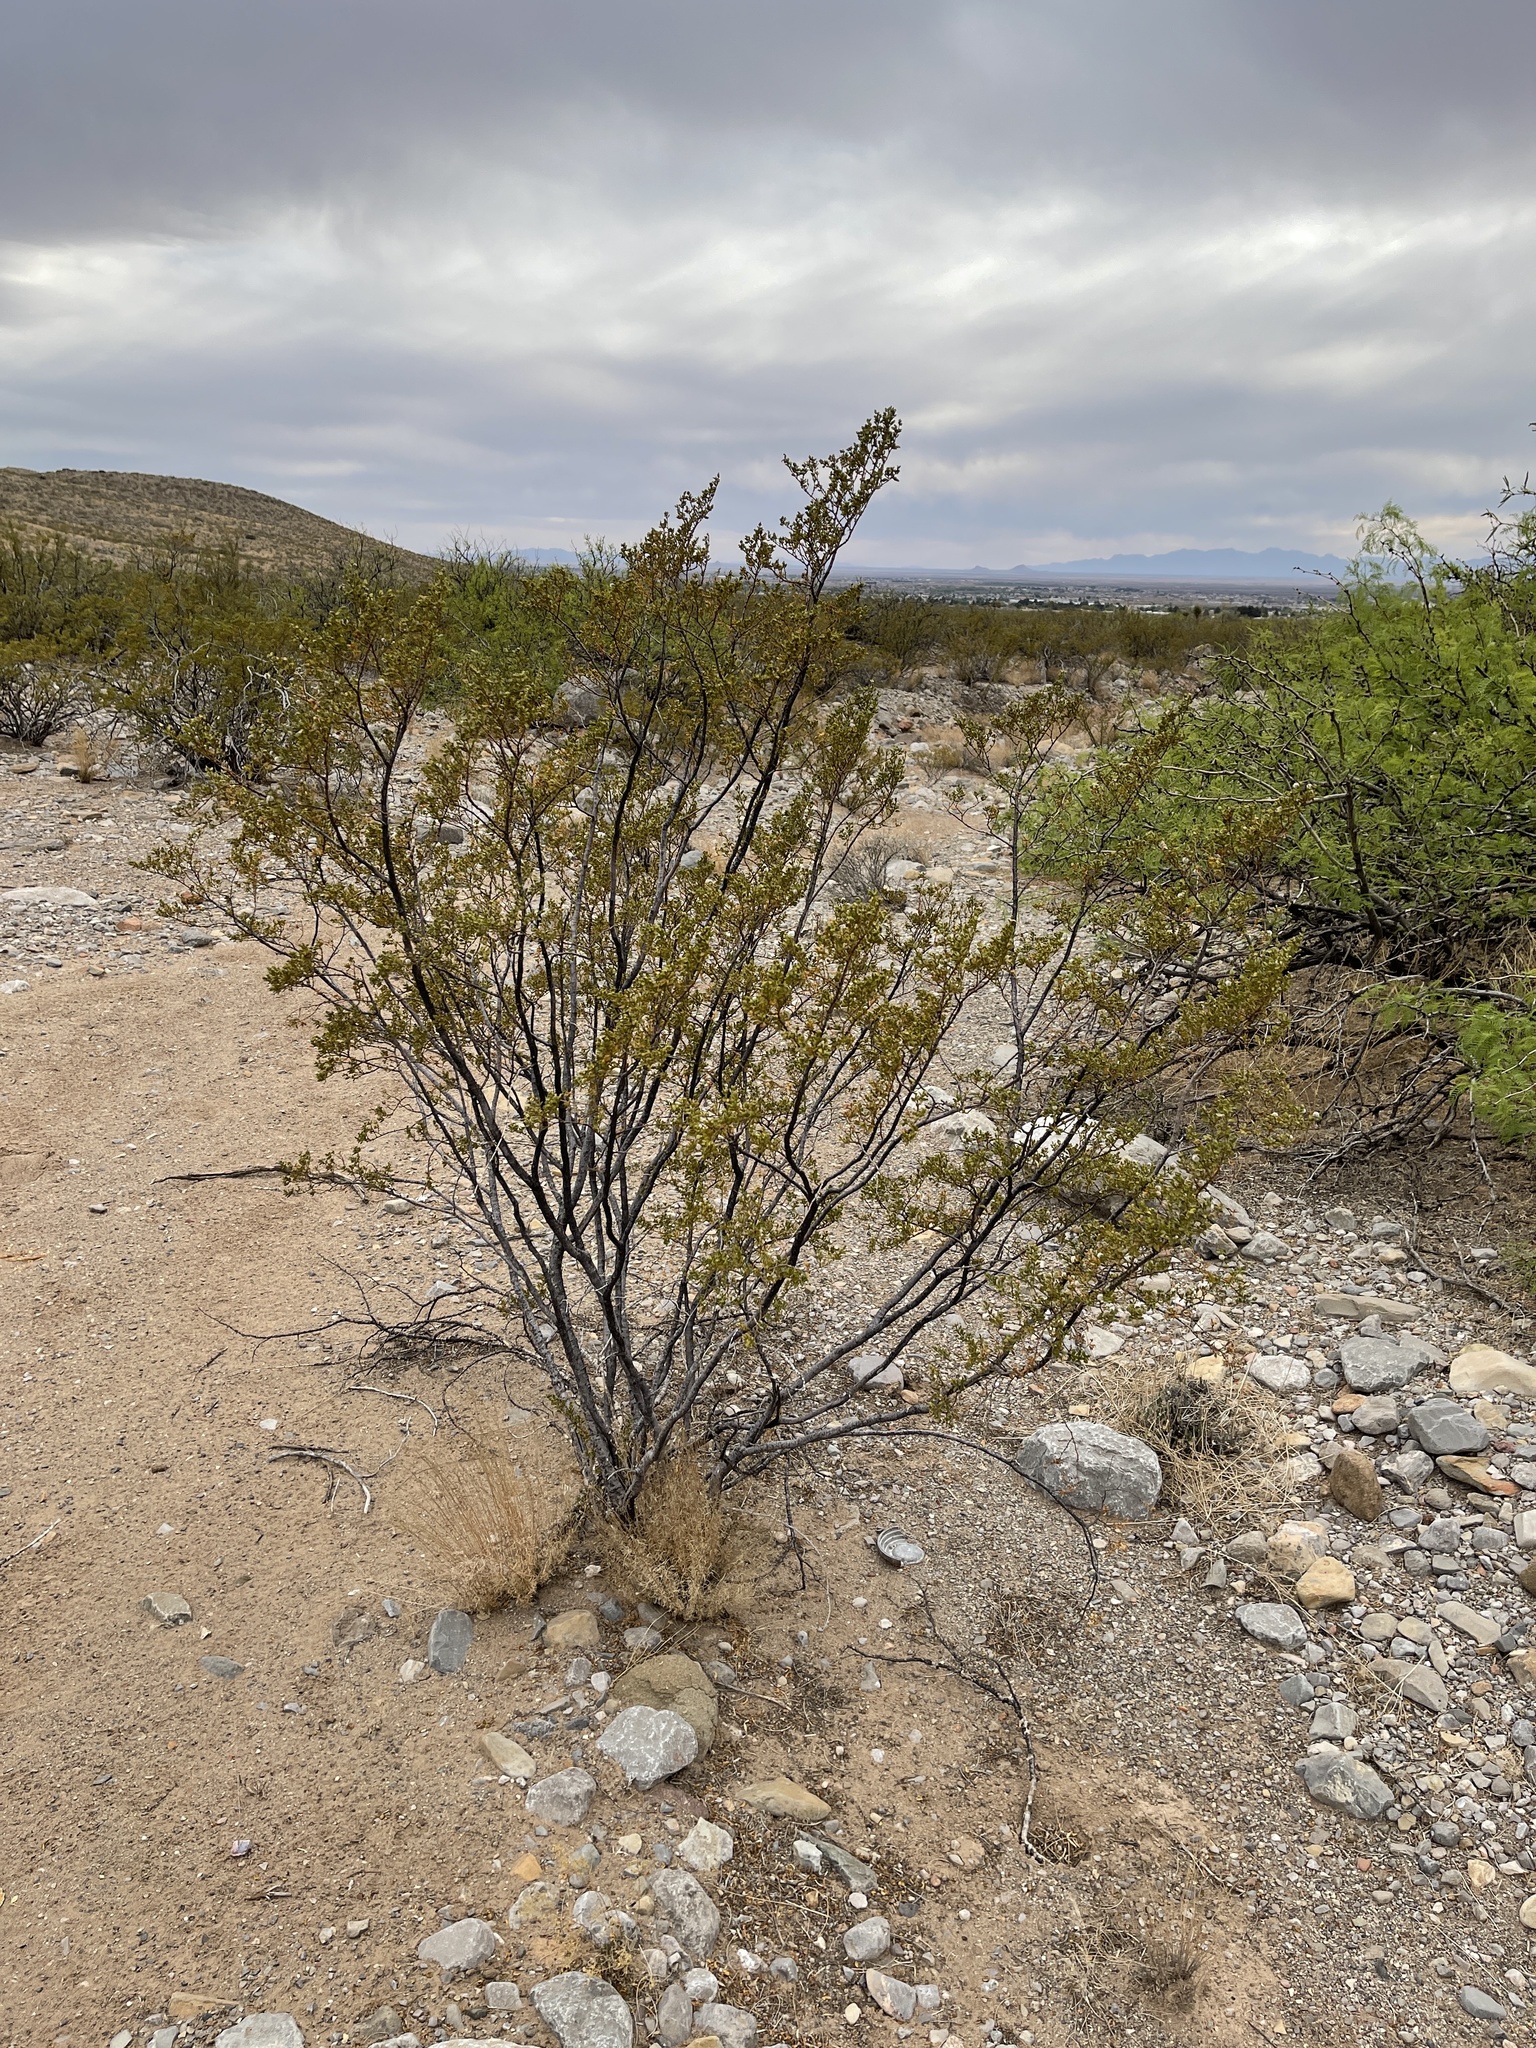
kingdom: Plantae
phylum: Tracheophyta
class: Magnoliopsida
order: Zygophyllales
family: Zygophyllaceae
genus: Larrea
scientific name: Larrea tridentata
